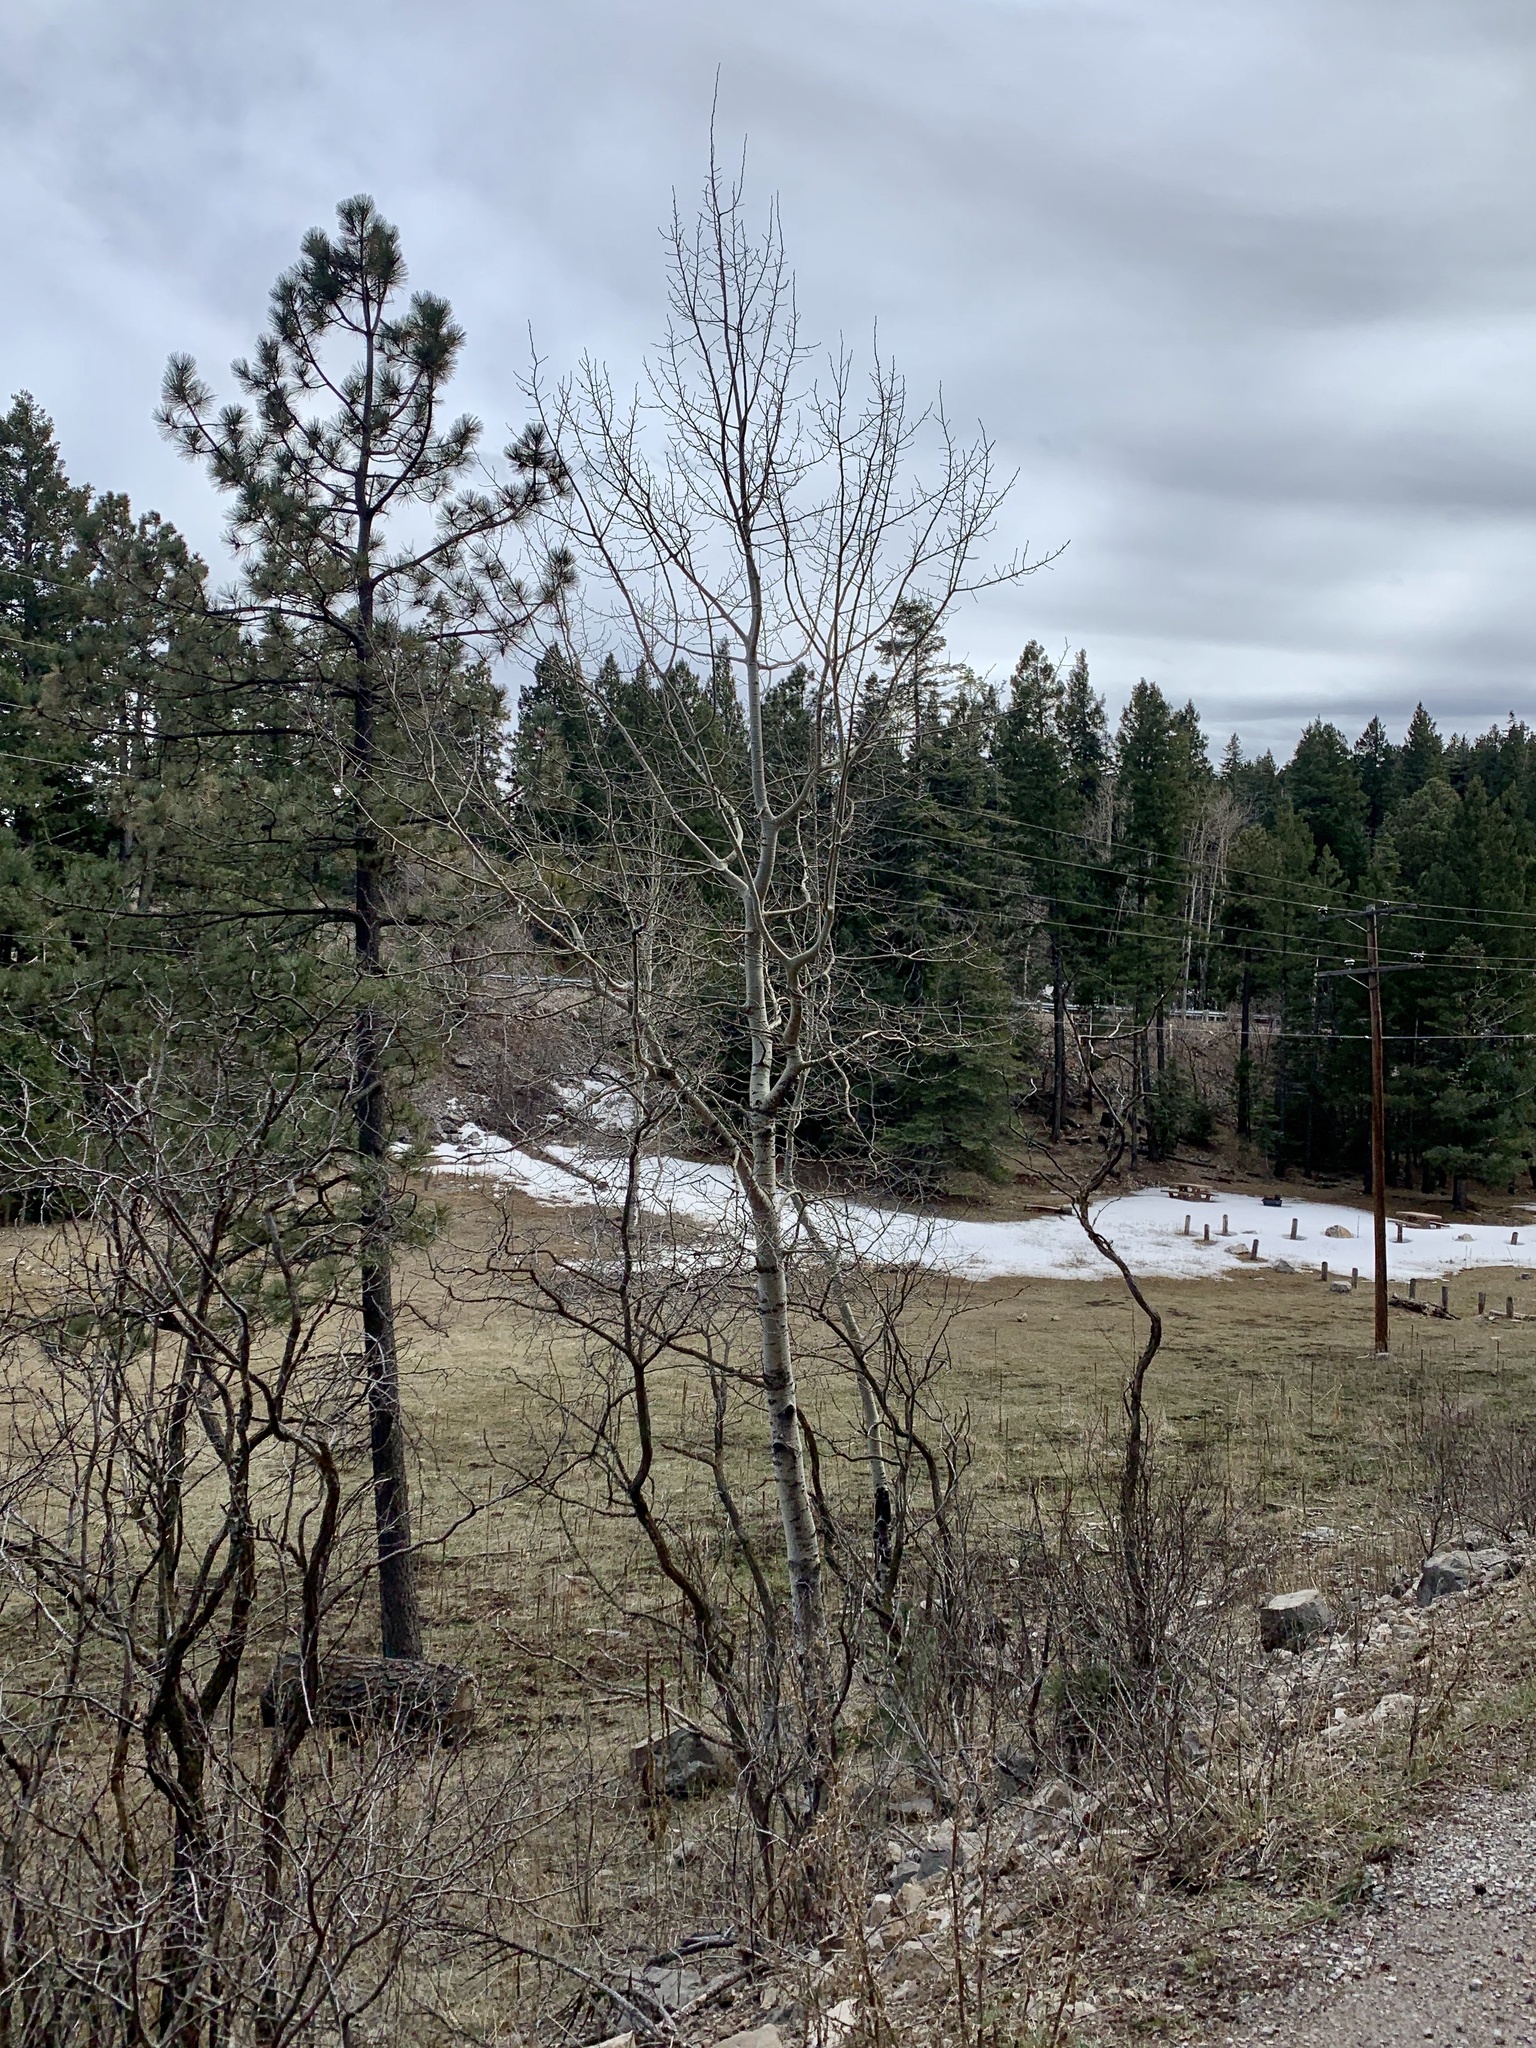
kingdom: Plantae
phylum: Tracheophyta
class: Magnoliopsida
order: Malpighiales
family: Salicaceae
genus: Populus
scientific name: Populus tremuloides
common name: Quaking aspen
